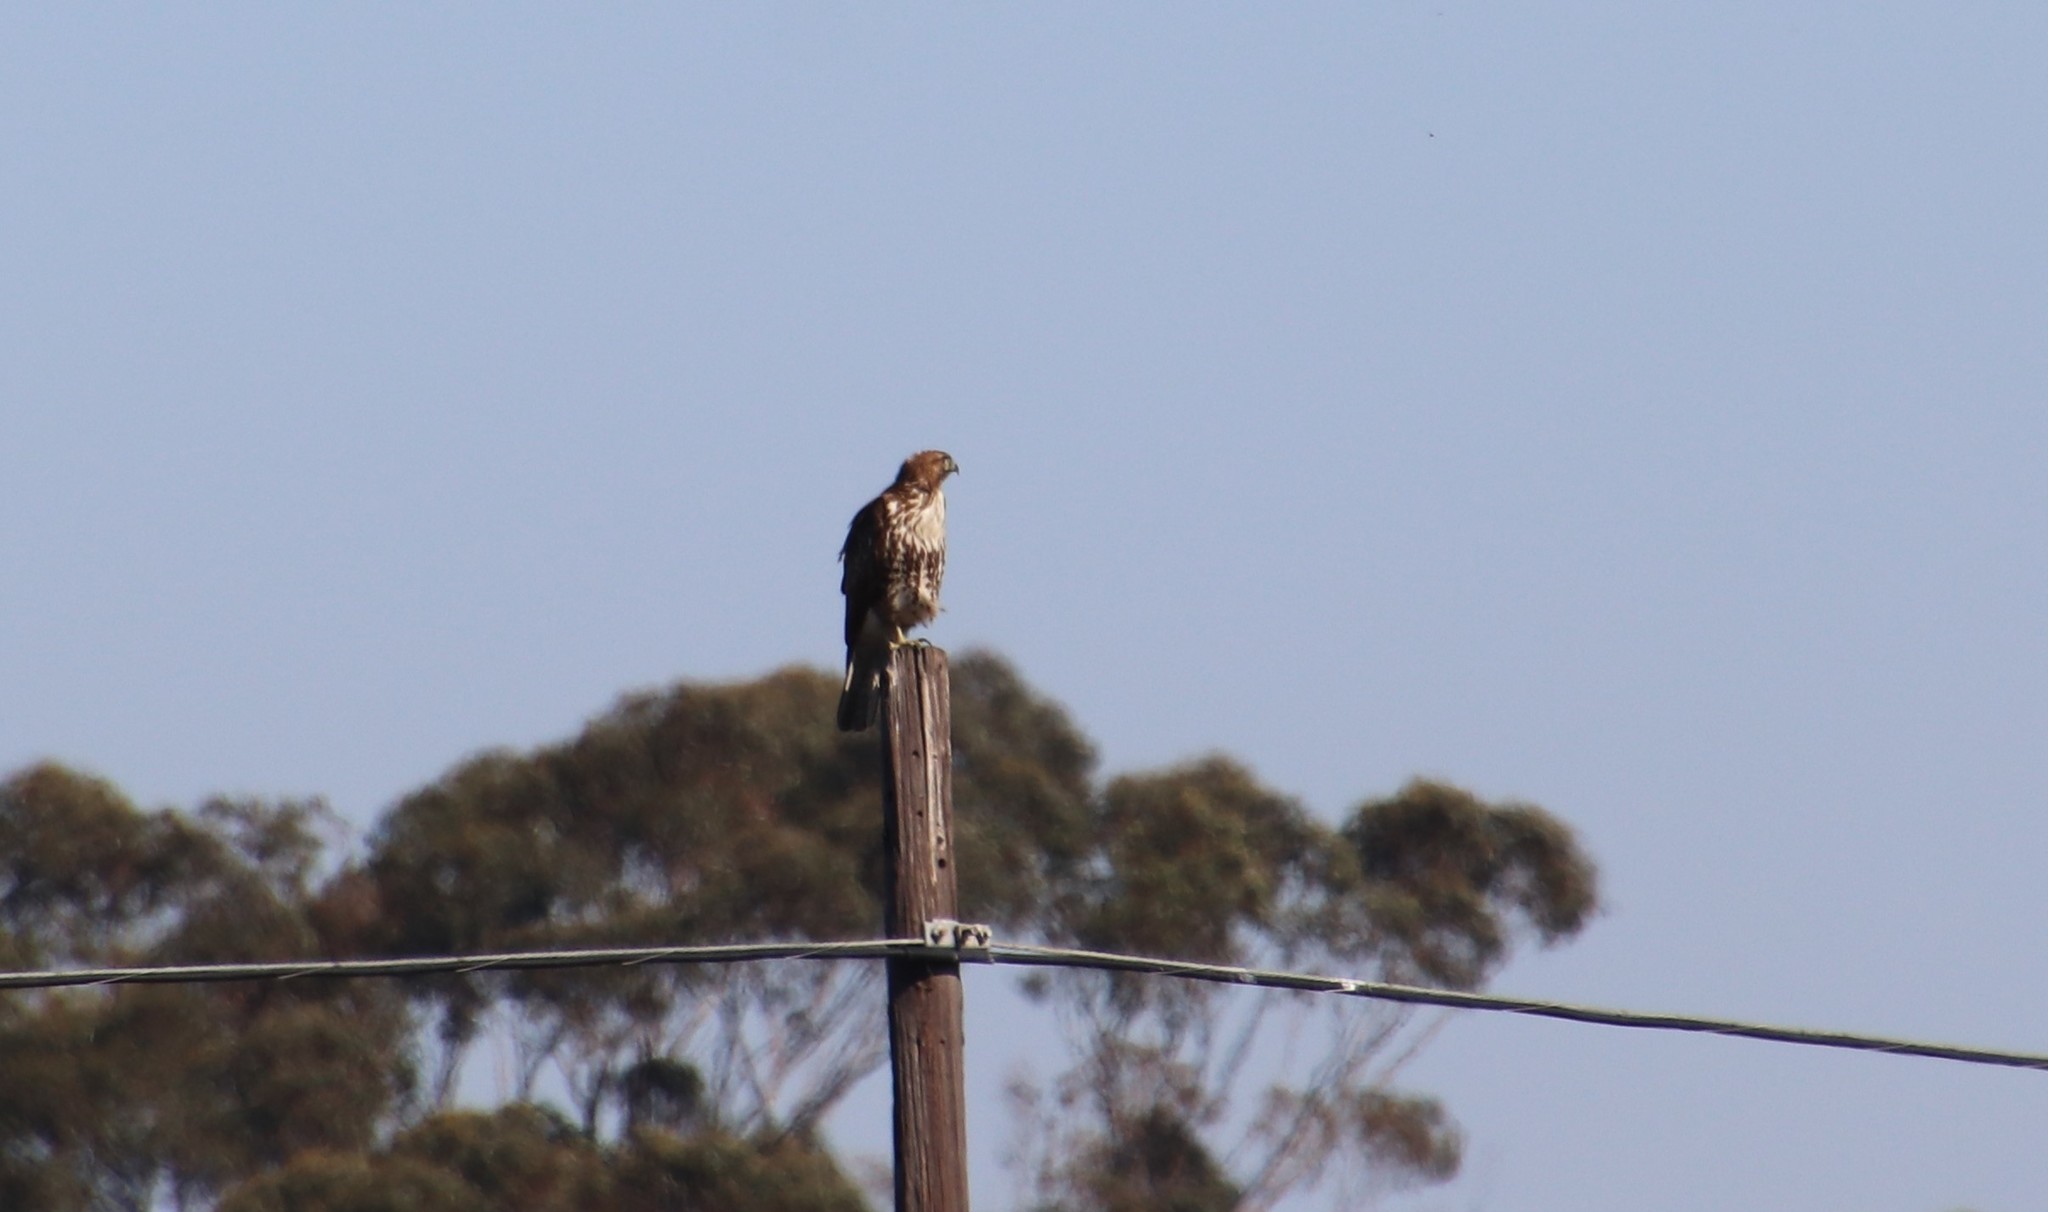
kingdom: Animalia
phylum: Chordata
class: Aves
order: Accipitriformes
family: Accipitridae
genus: Buteo
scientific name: Buteo jamaicensis
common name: Red-tailed hawk
